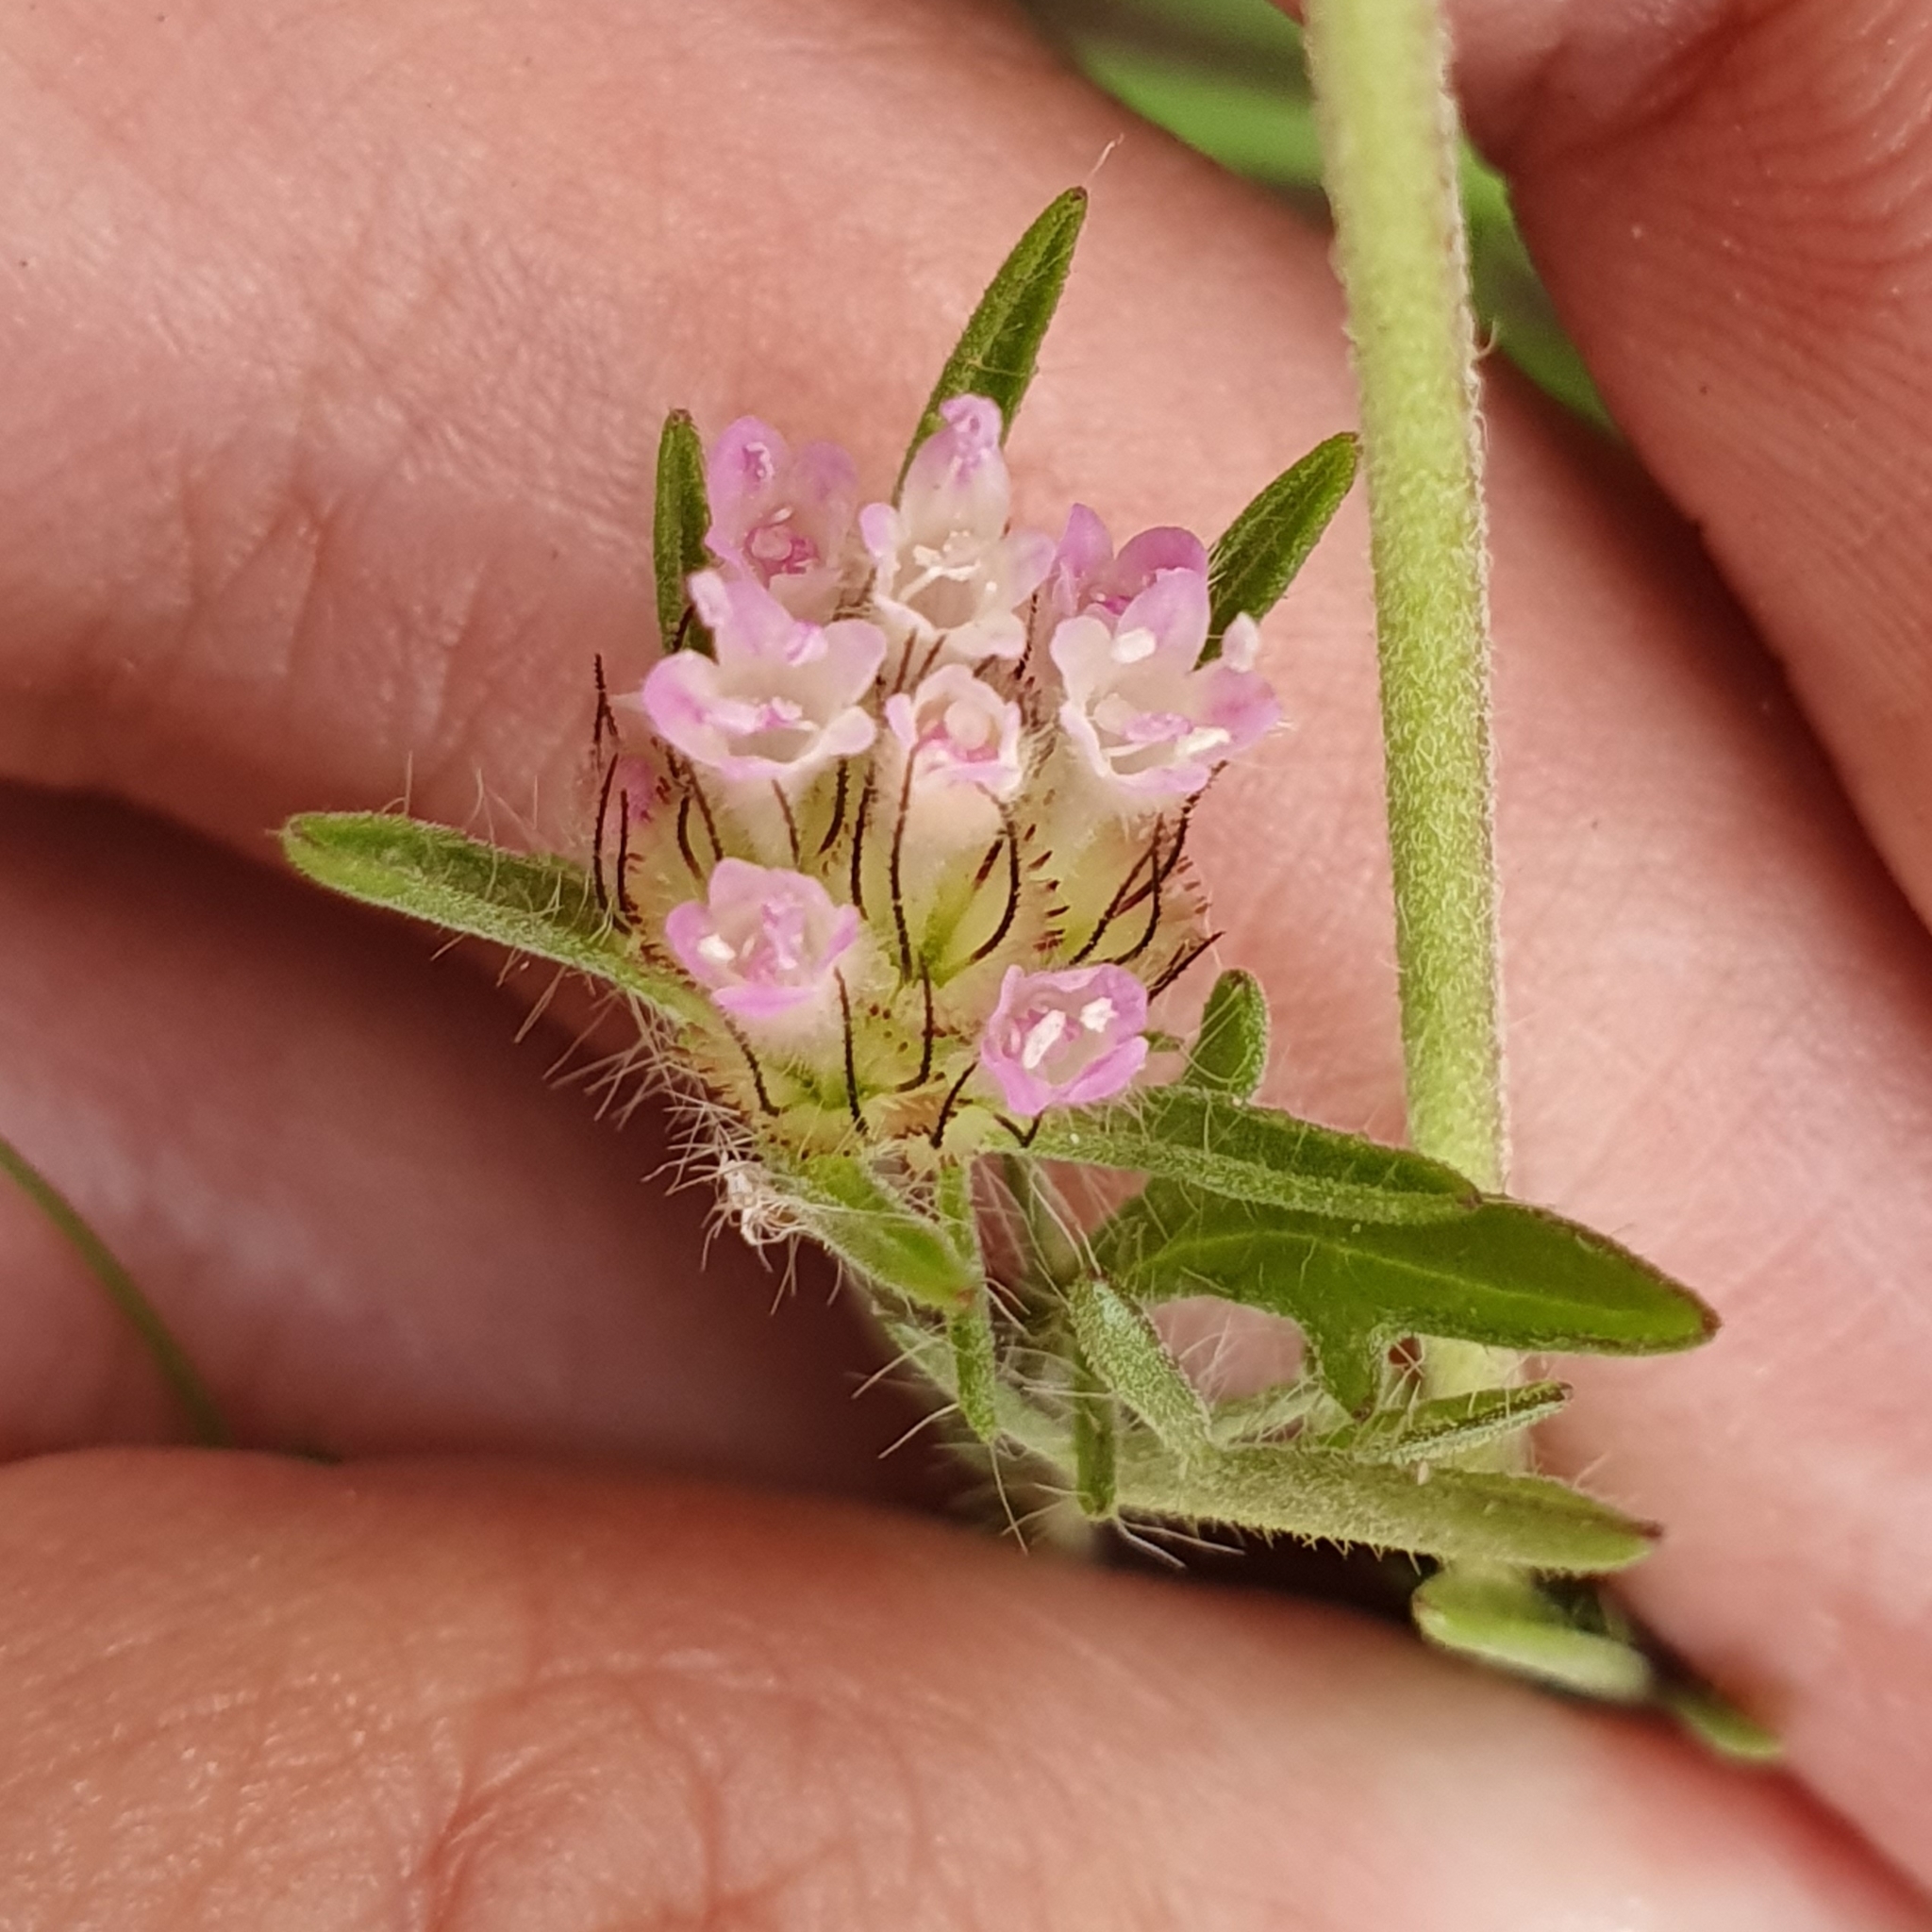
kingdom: Plantae
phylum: Tracheophyta
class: Magnoliopsida
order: Dipsacales
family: Caprifoliaceae
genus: Lomelosia
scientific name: Lomelosia stellata
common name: Teasel
